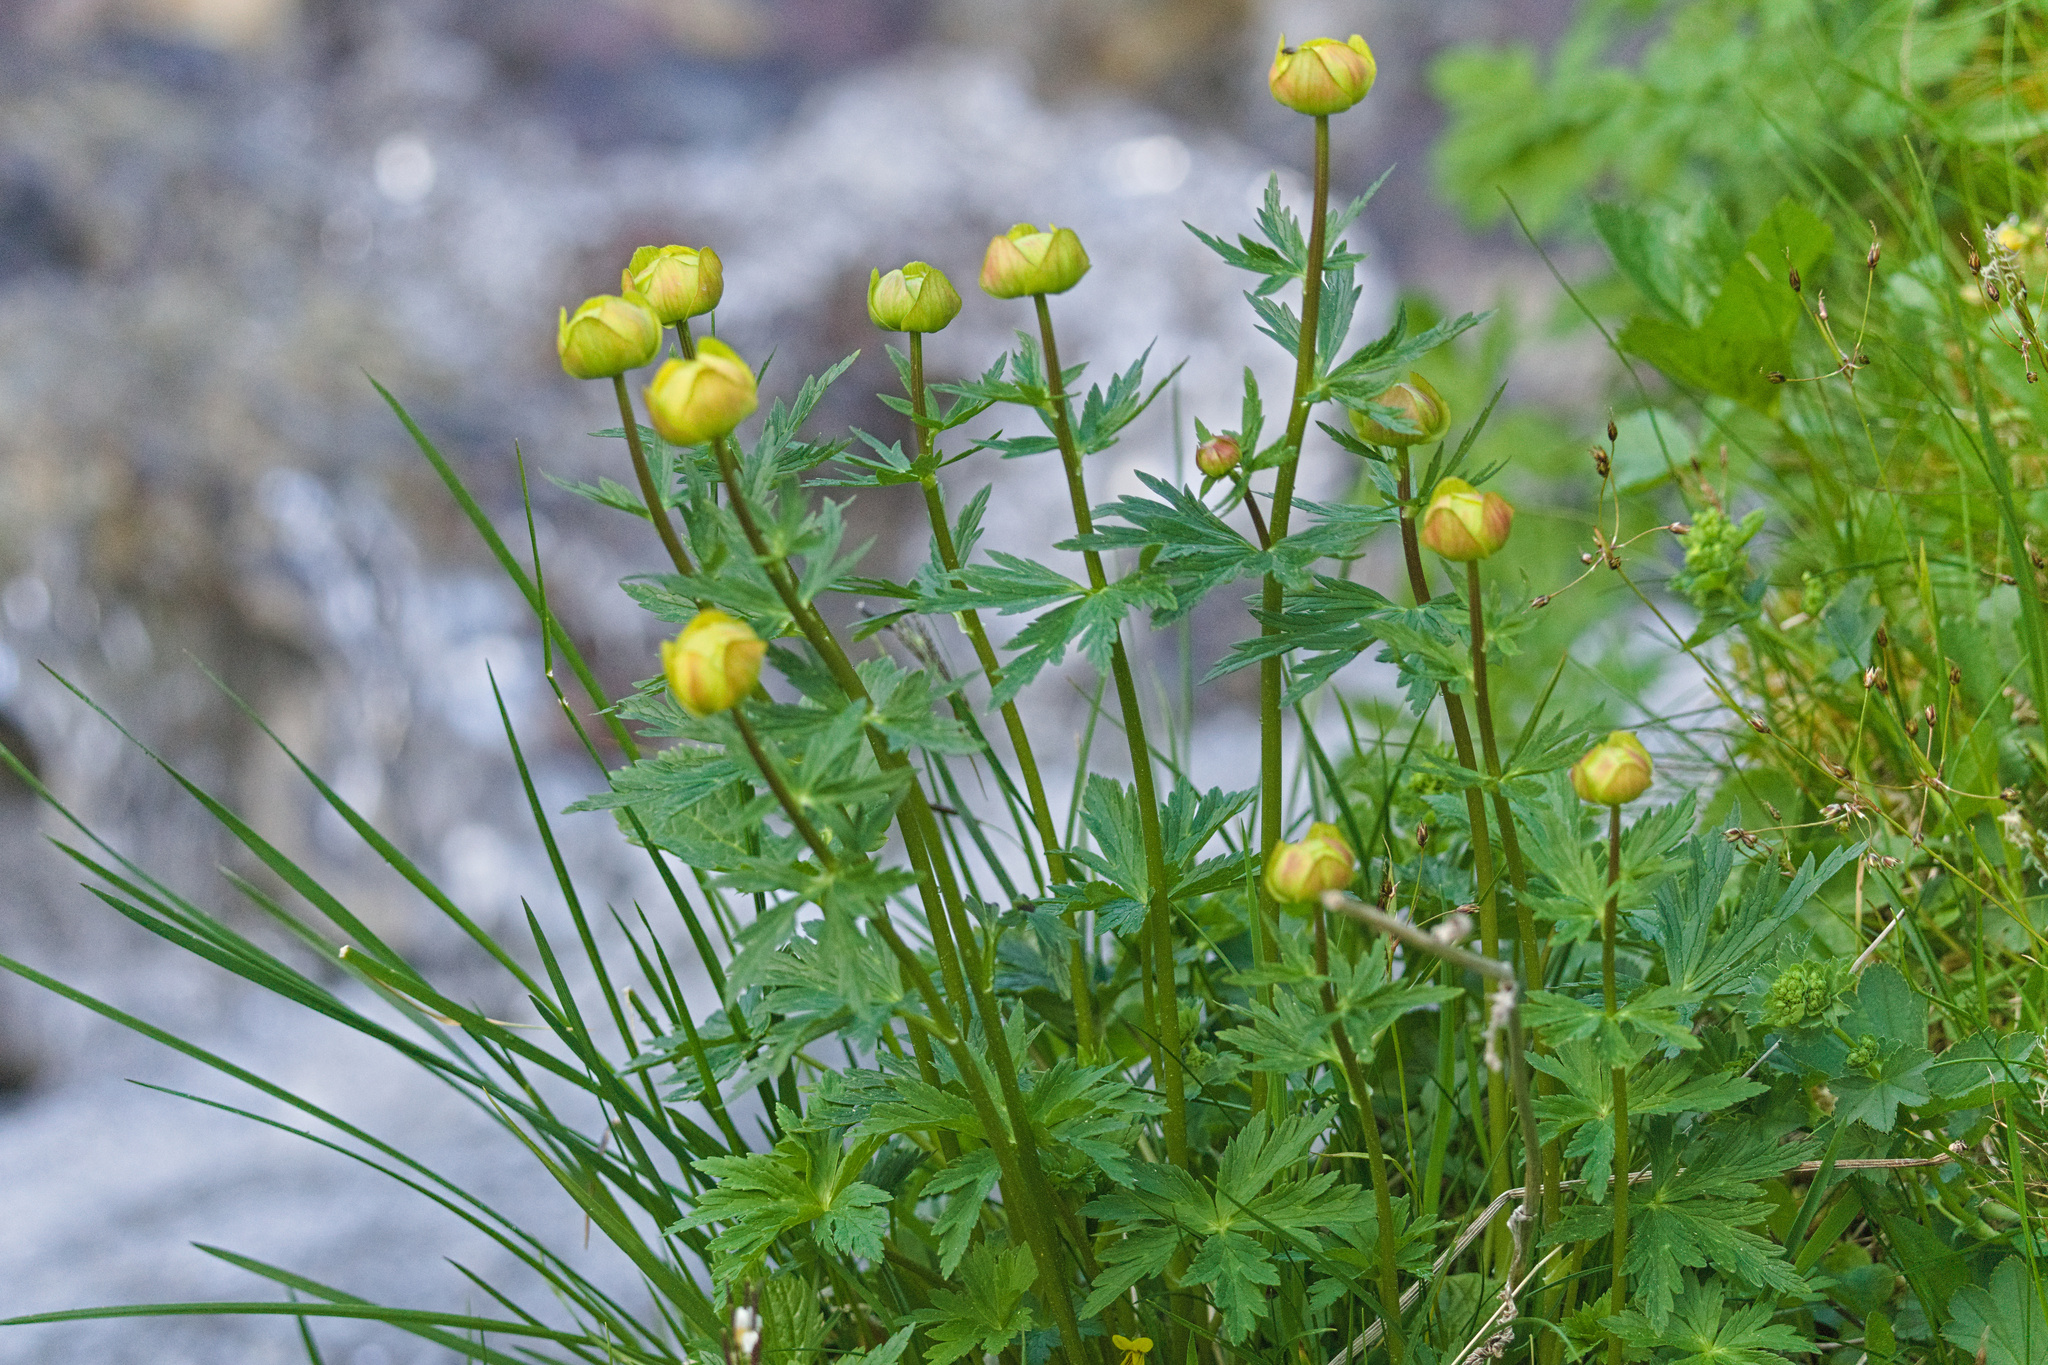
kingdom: Plantae
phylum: Tracheophyta
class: Magnoliopsida
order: Ranunculales
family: Ranunculaceae
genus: Trollius
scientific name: Trollius europaeus
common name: European globeflower
